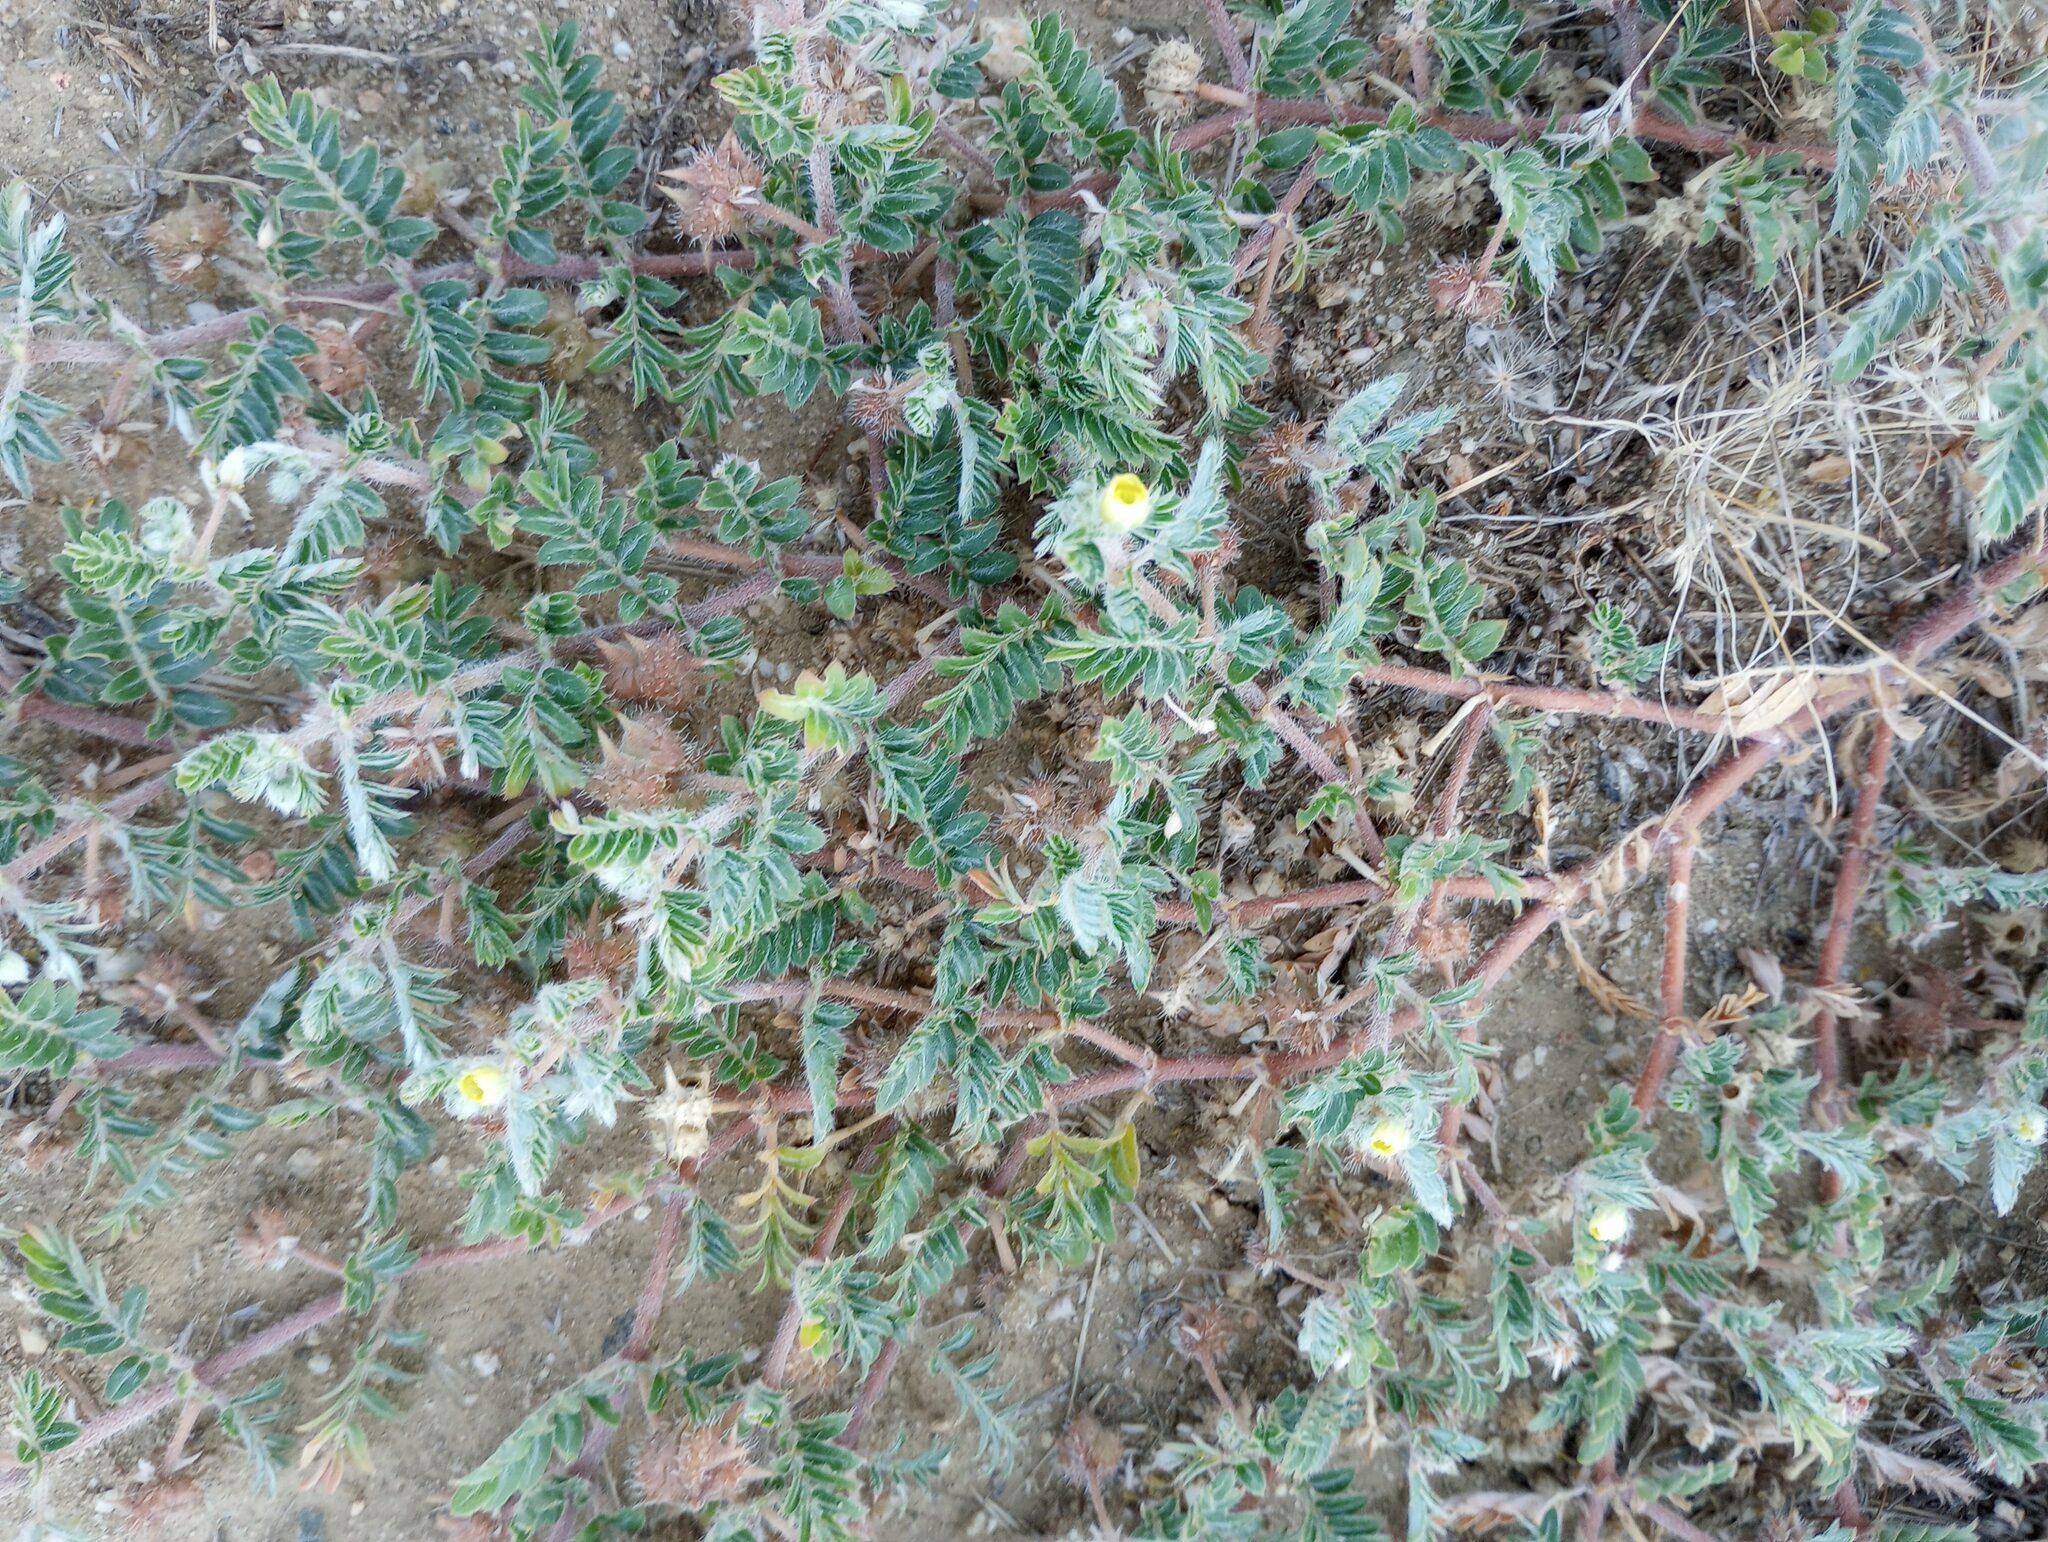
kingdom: Plantae
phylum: Tracheophyta
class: Magnoliopsida
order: Zygophyllales
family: Zygophyllaceae
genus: Tribulus
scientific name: Tribulus terrestris
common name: Puncturevine
